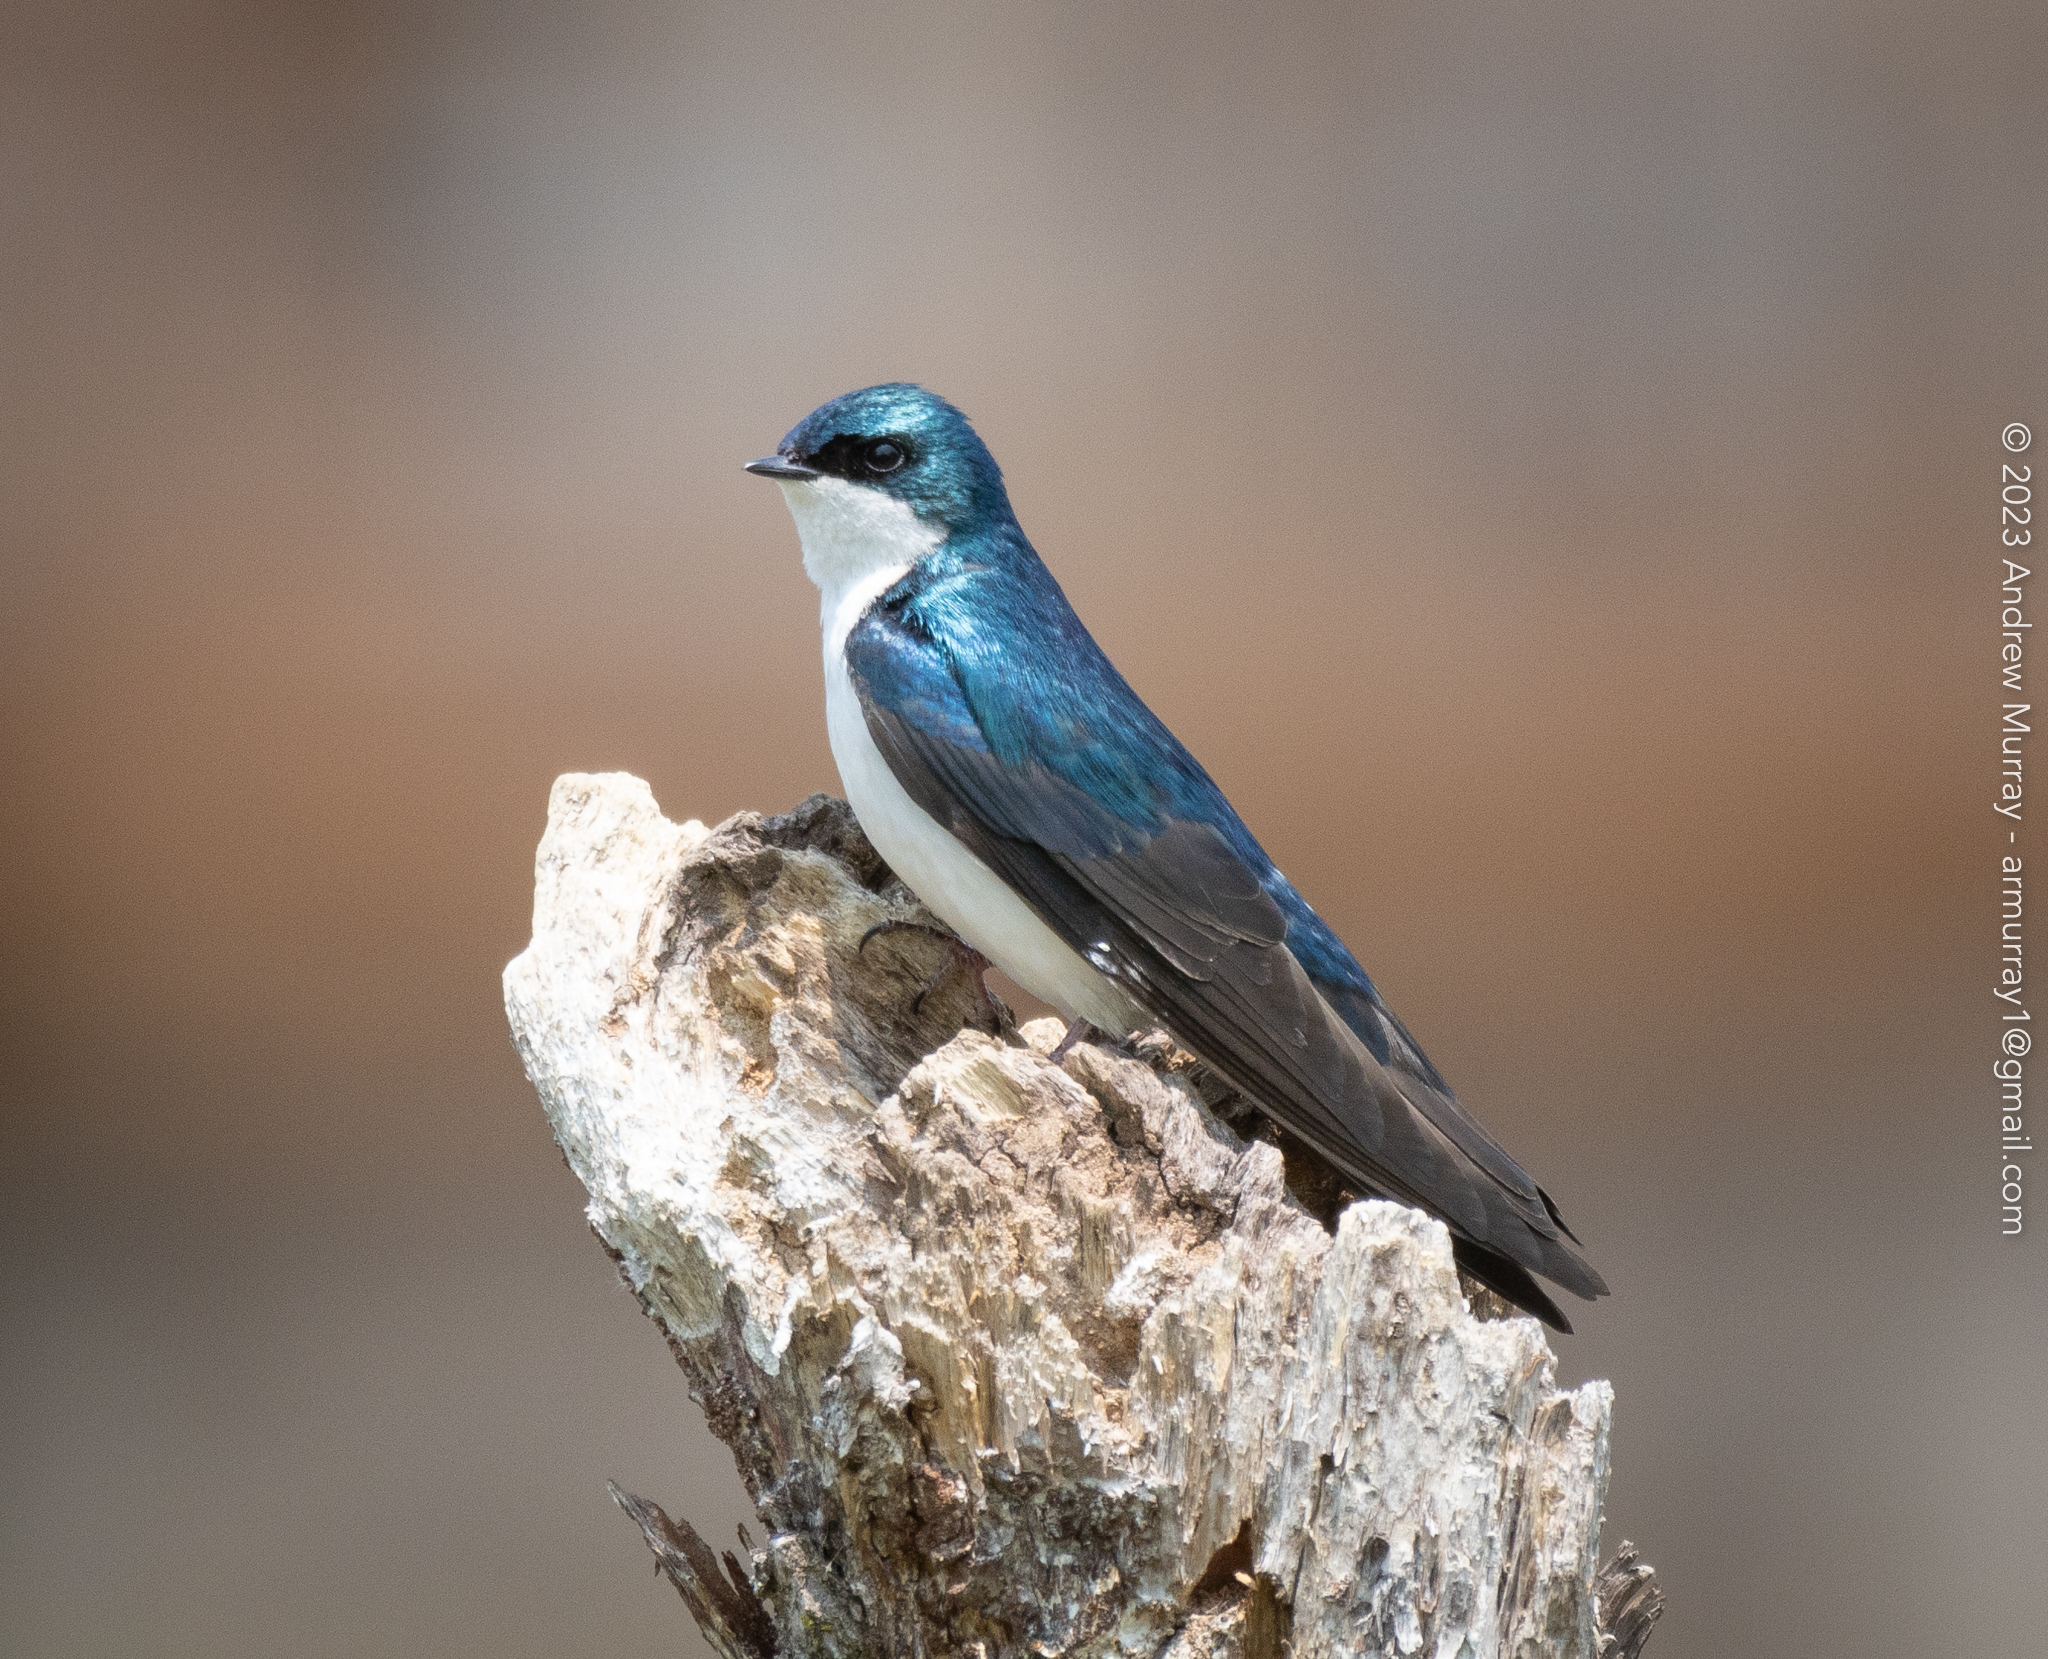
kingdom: Animalia
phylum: Chordata
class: Aves
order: Passeriformes
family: Hirundinidae
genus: Tachycineta
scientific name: Tachycineta bicolor
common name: Tree swallow
